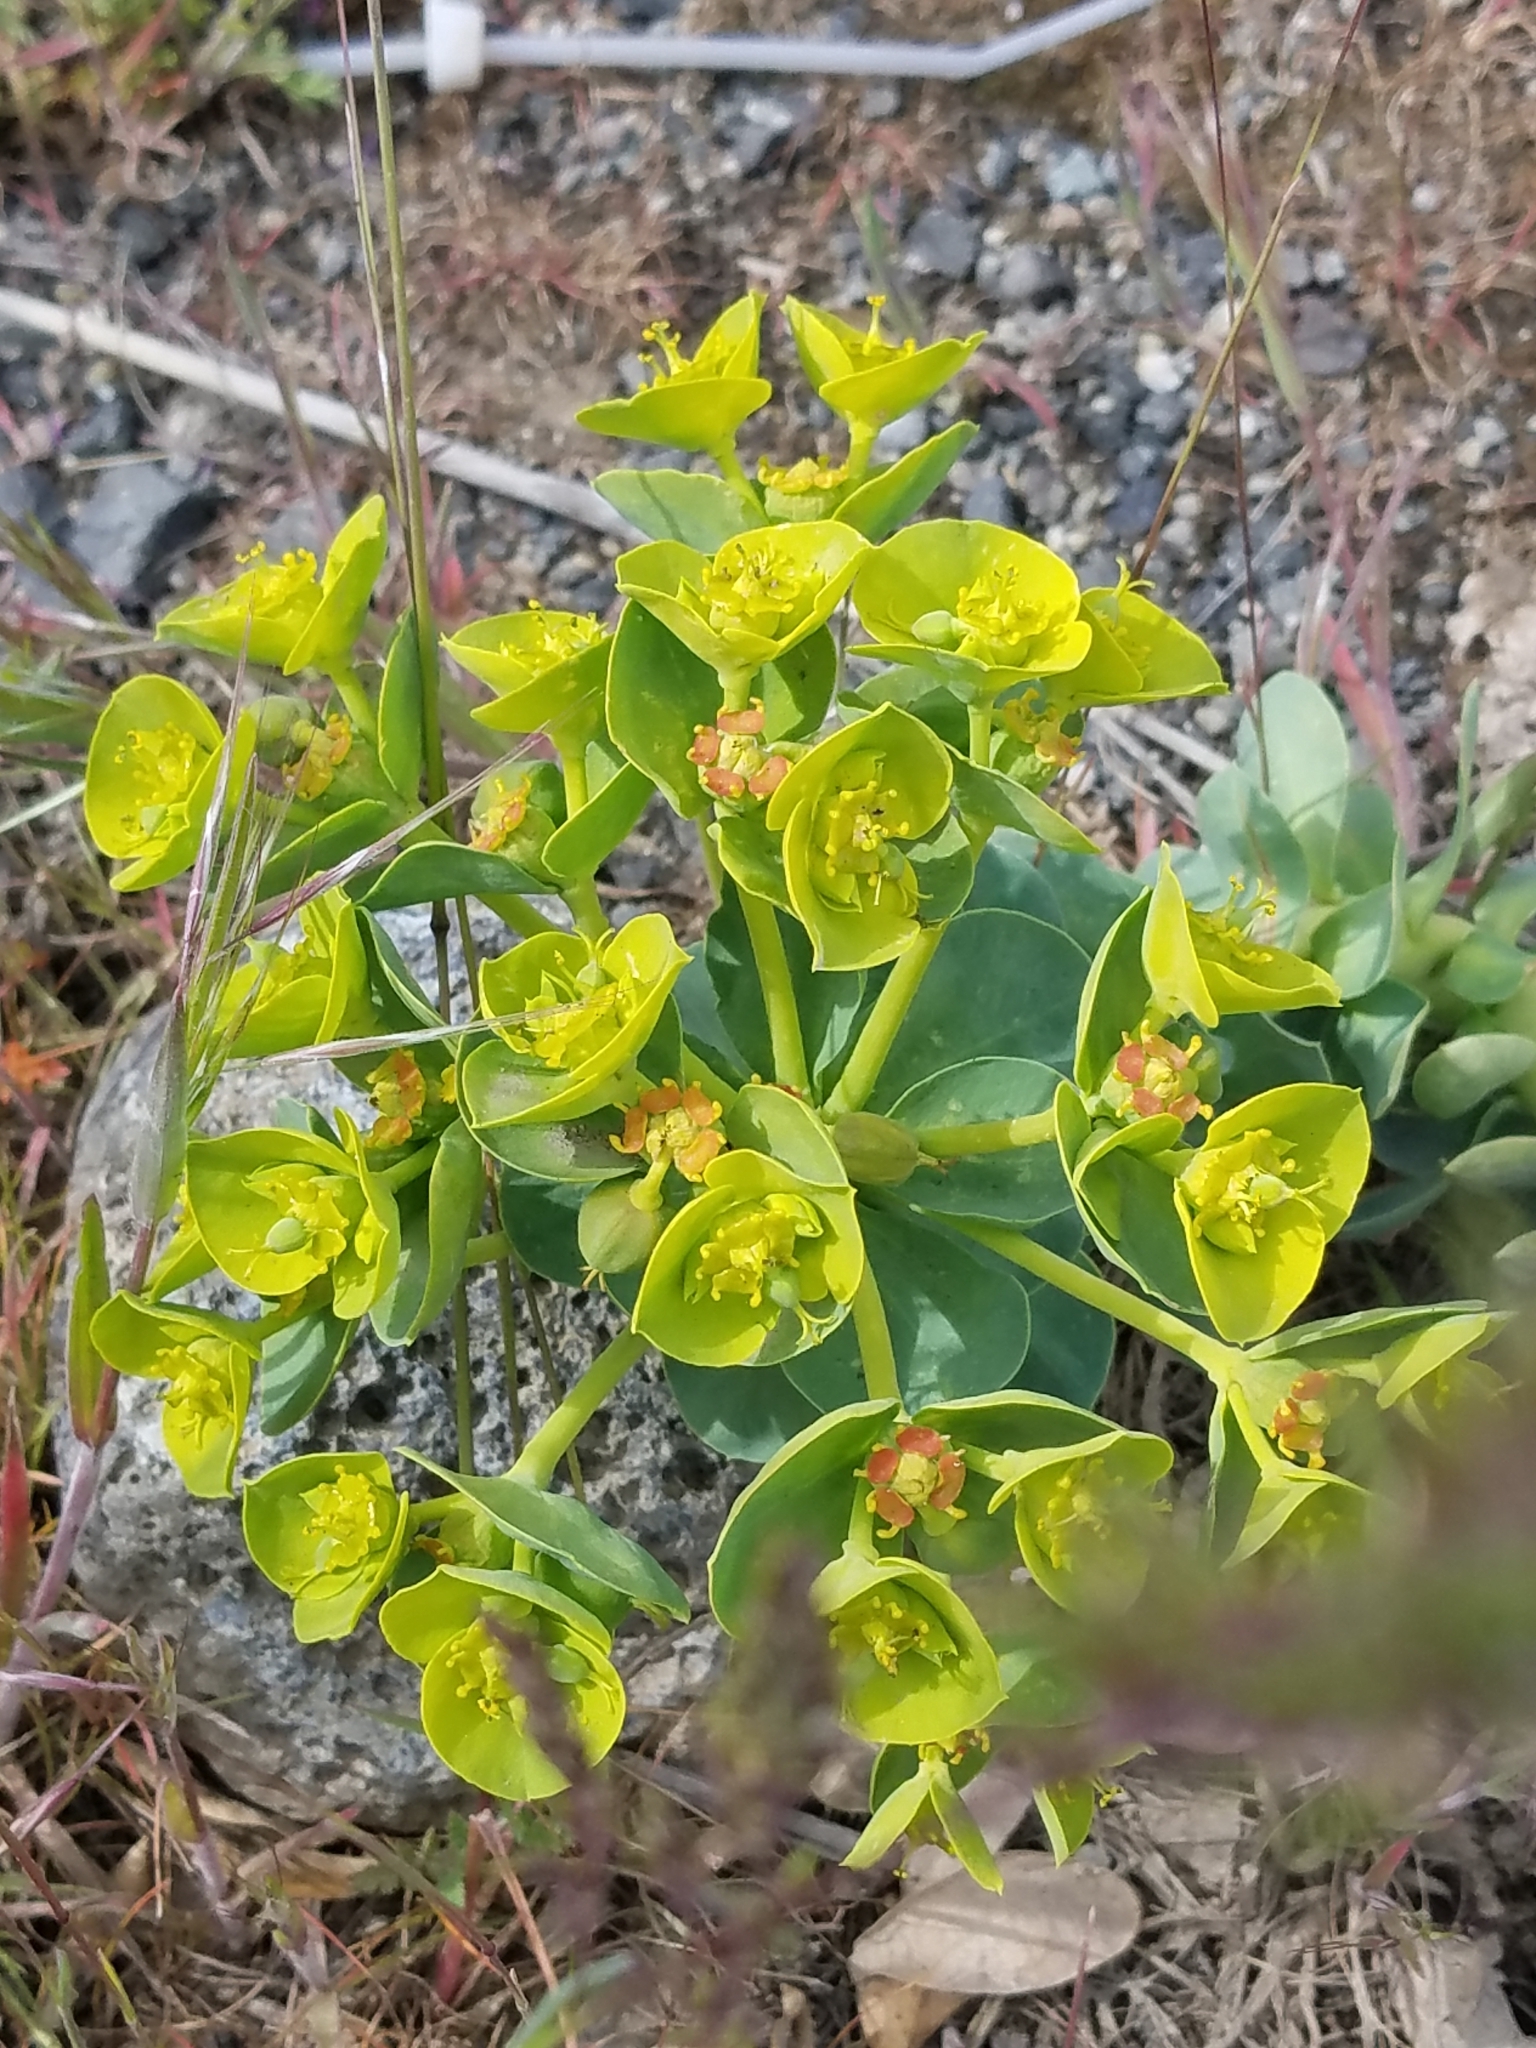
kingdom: Plantae
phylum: Tracheophyta
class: Magnoliopsida
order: Malpighiales
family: Euphorbiaceae
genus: Euphorbia
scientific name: Euphorbia myrsinites
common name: Myrtle spurge
